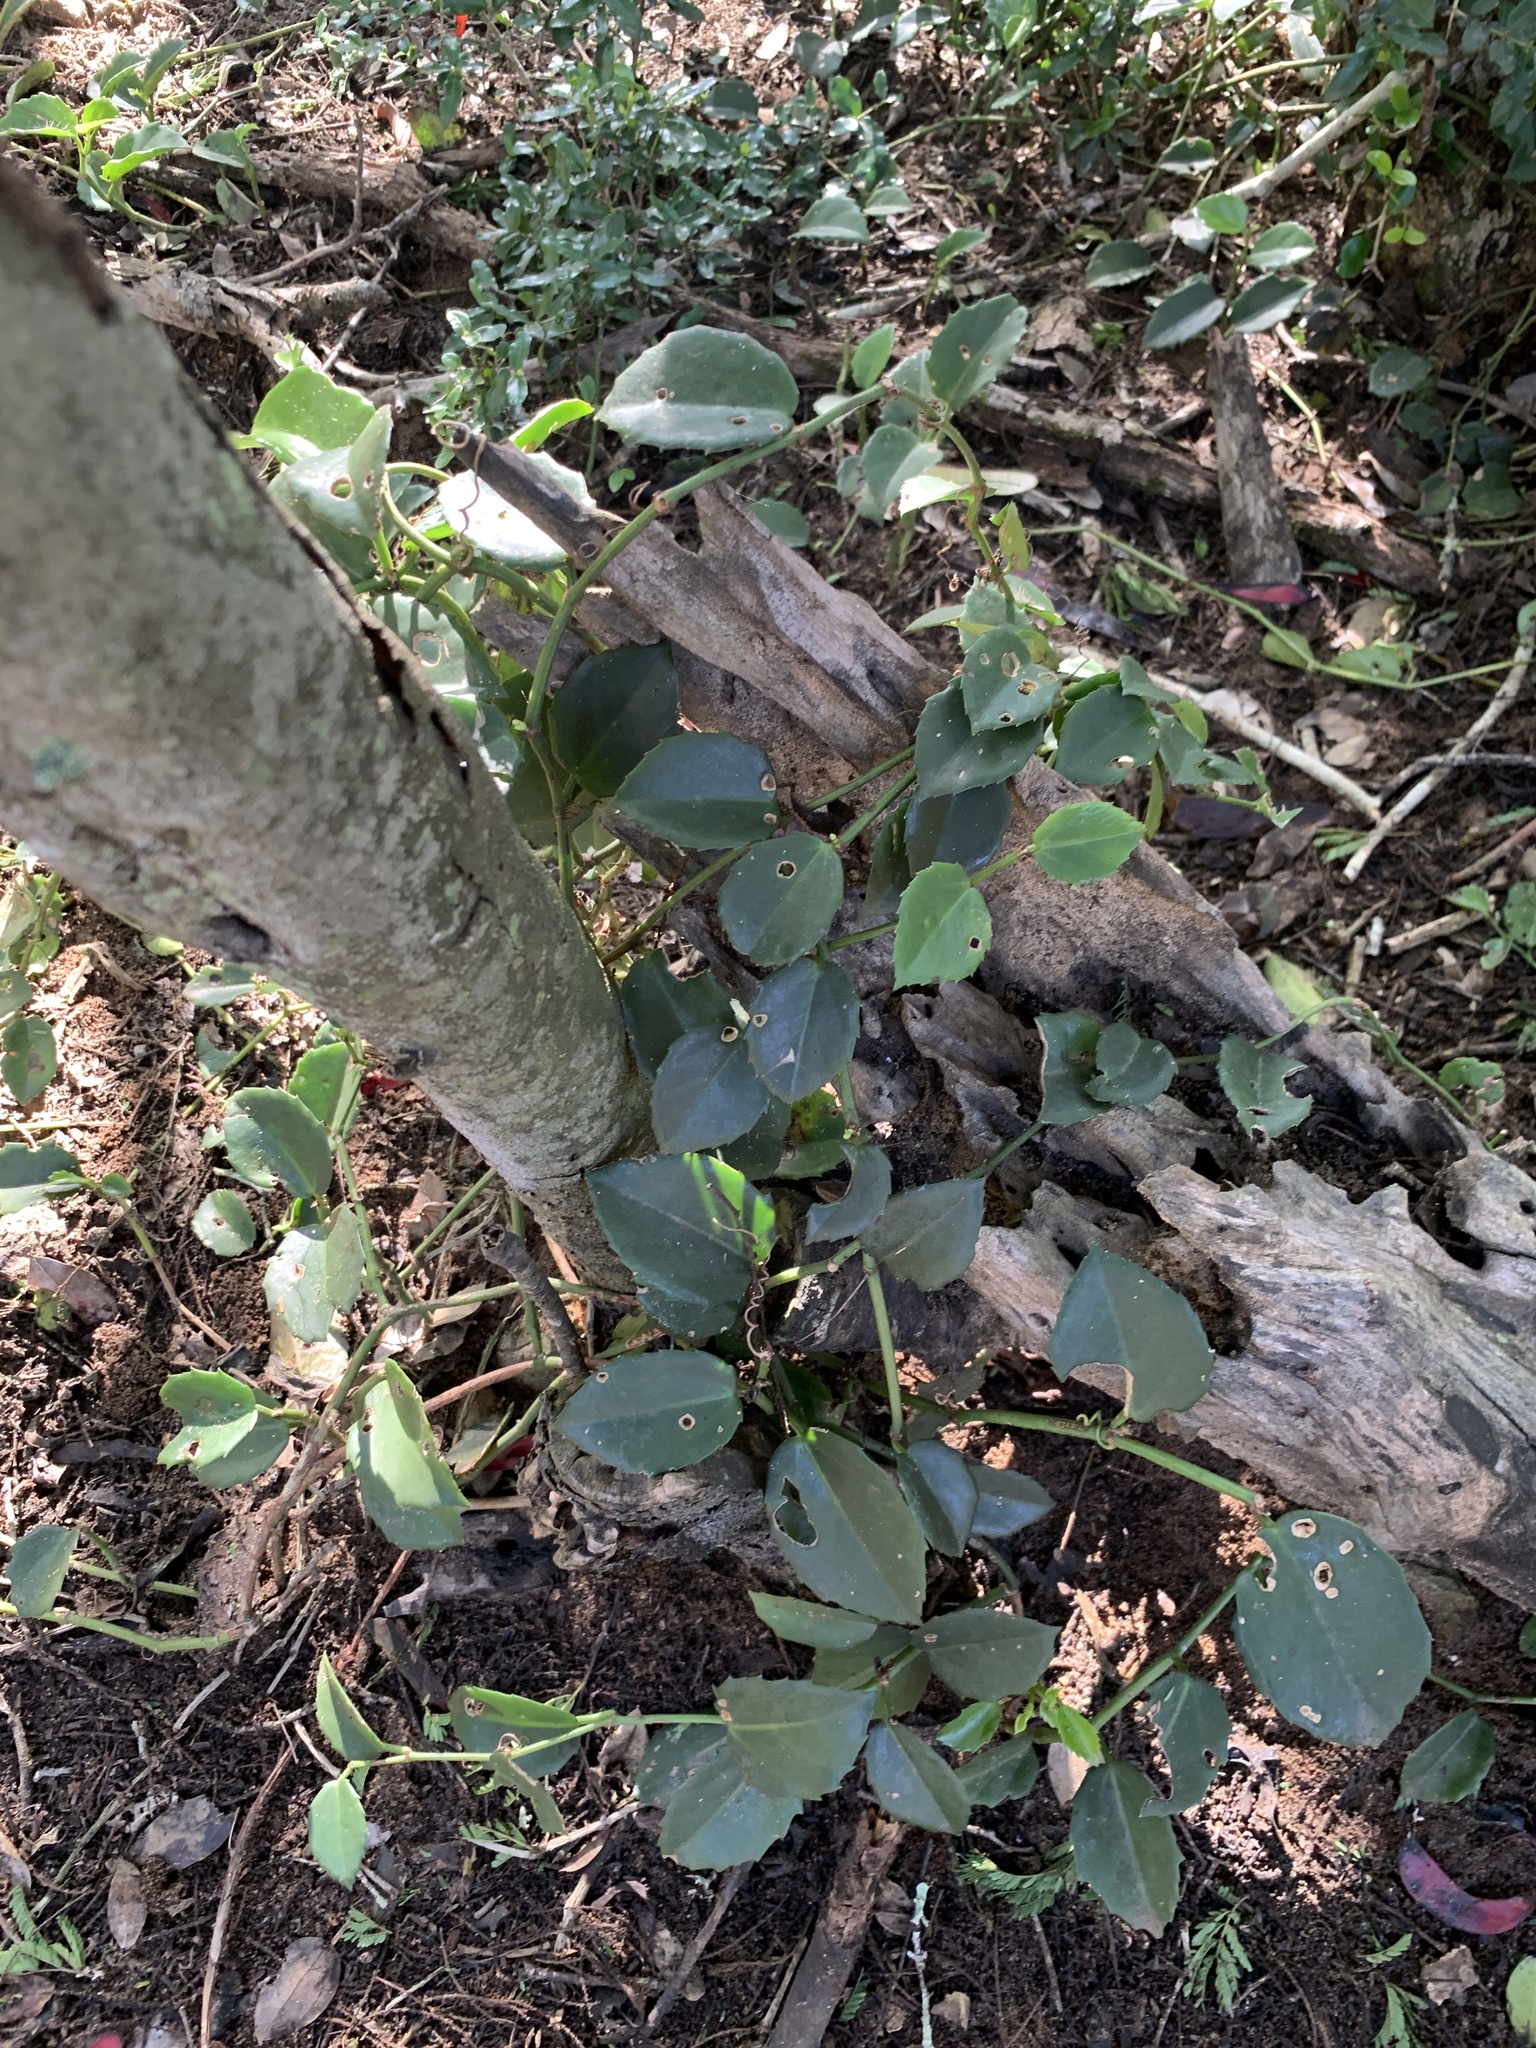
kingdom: Plantae
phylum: Tracheophyta
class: Magnoliopsida
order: Vitales
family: Vitaceae
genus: Cissus
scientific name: Cissus rotundifolia
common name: Arabian wax cissus
